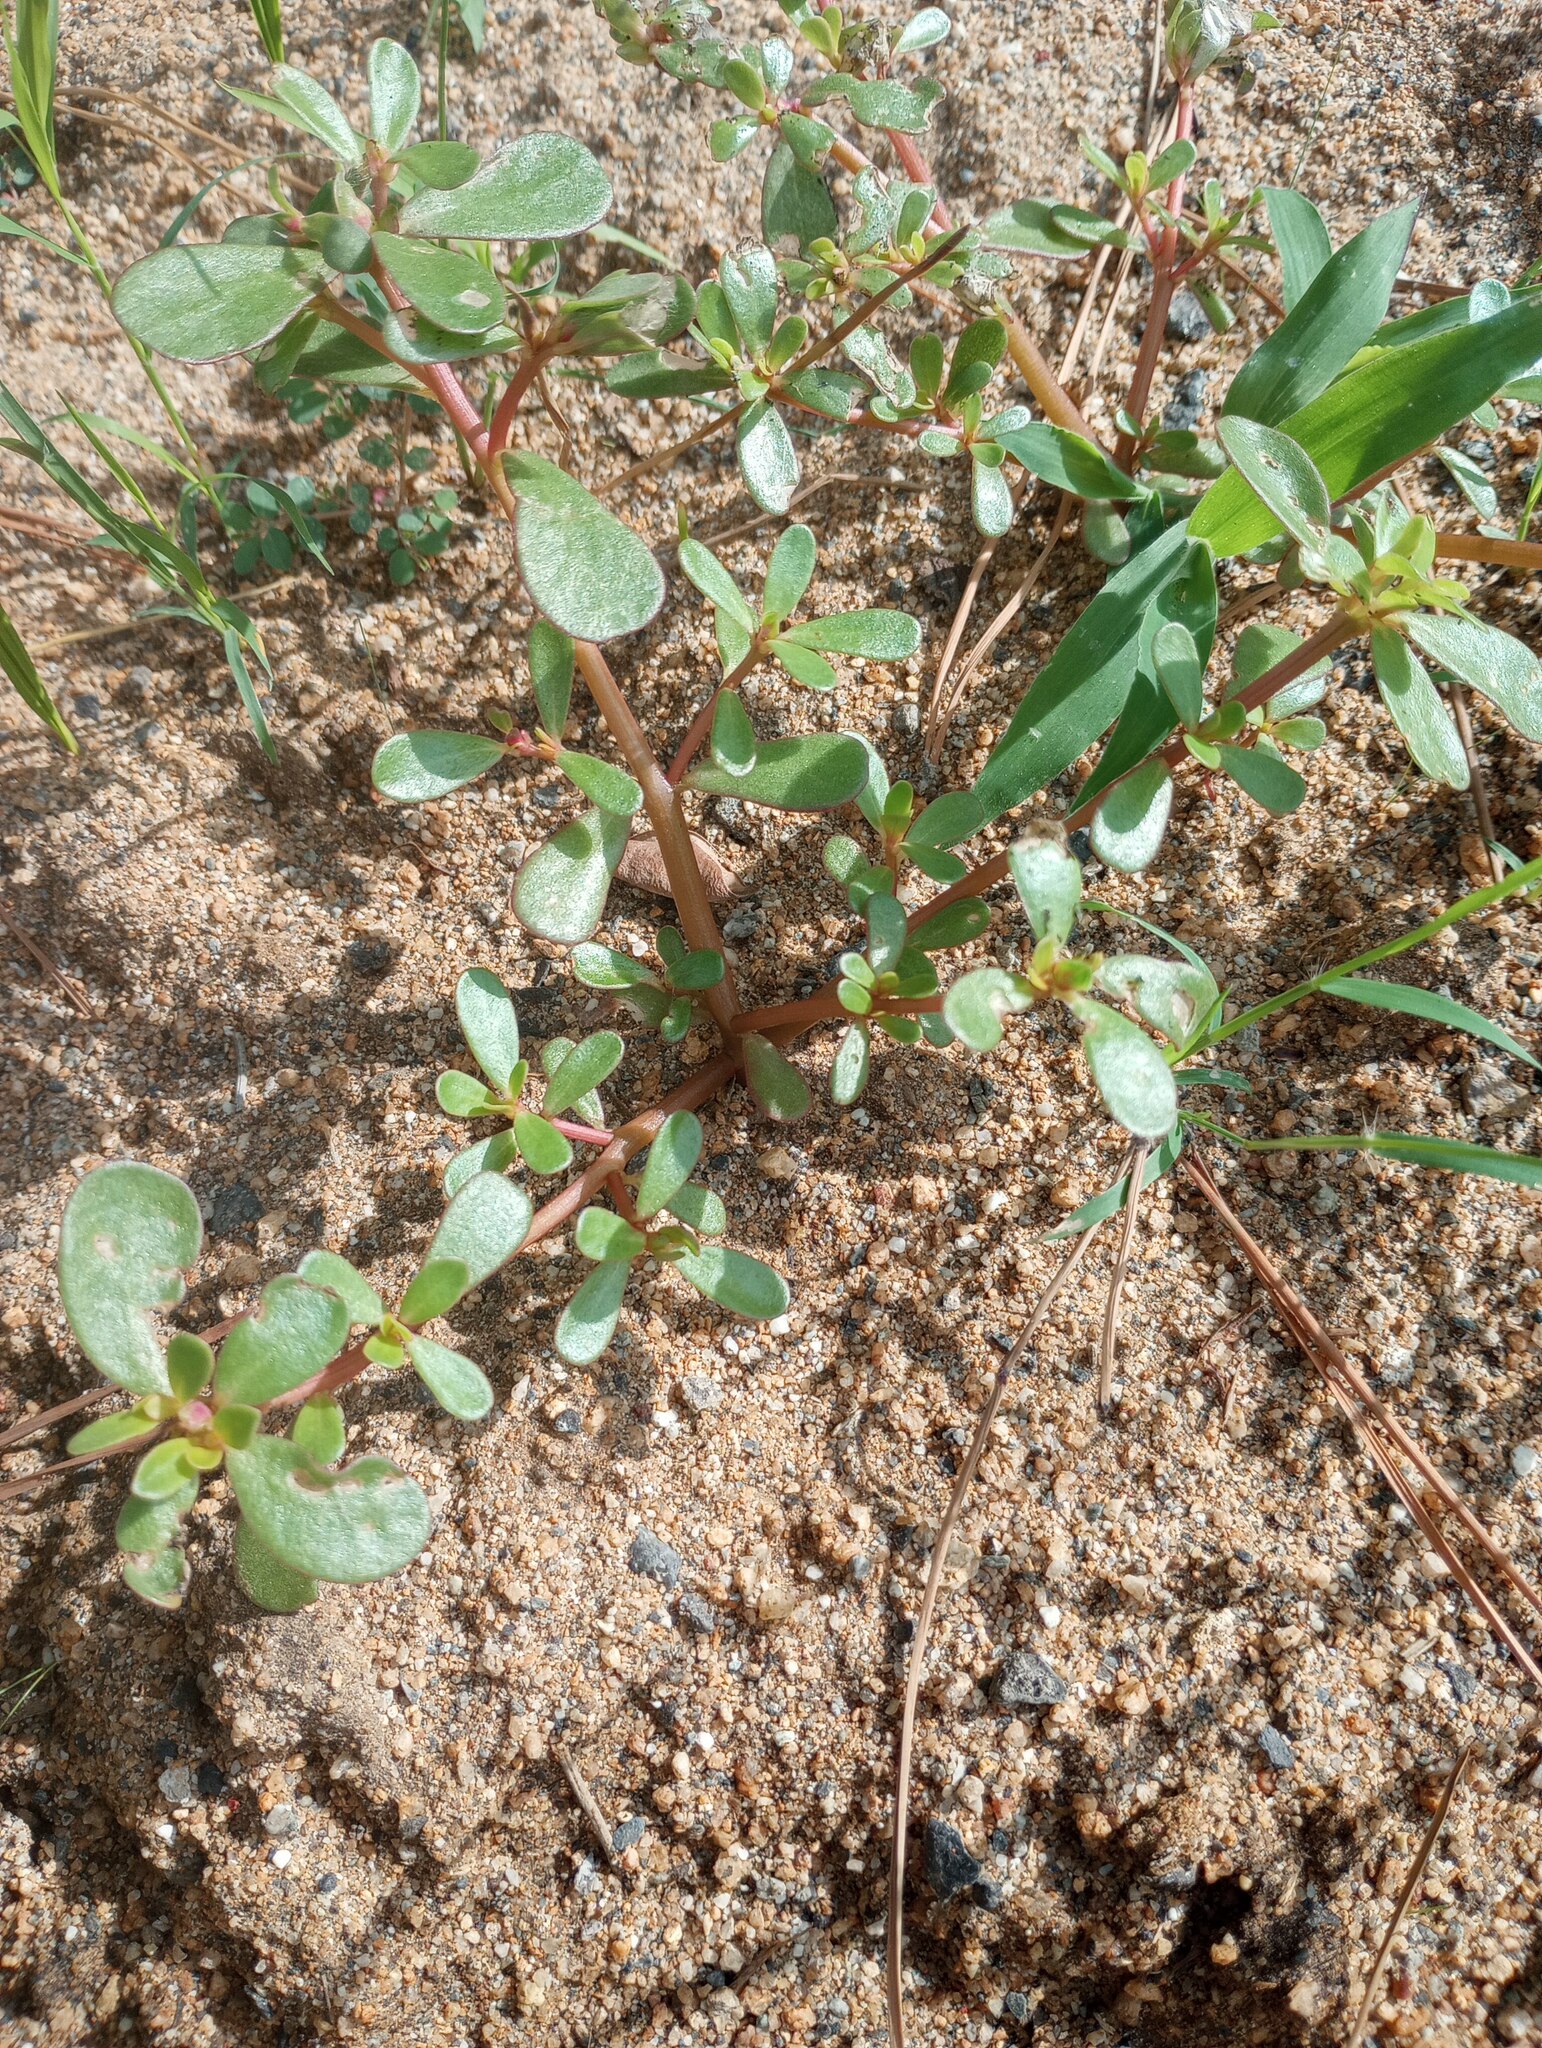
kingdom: Plantae
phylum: Tracheophyta
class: Magnoliopsida
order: Caryophyllales
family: Portulacaceae
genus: Portulaca
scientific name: Portulaca oleracea
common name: Common purslane
